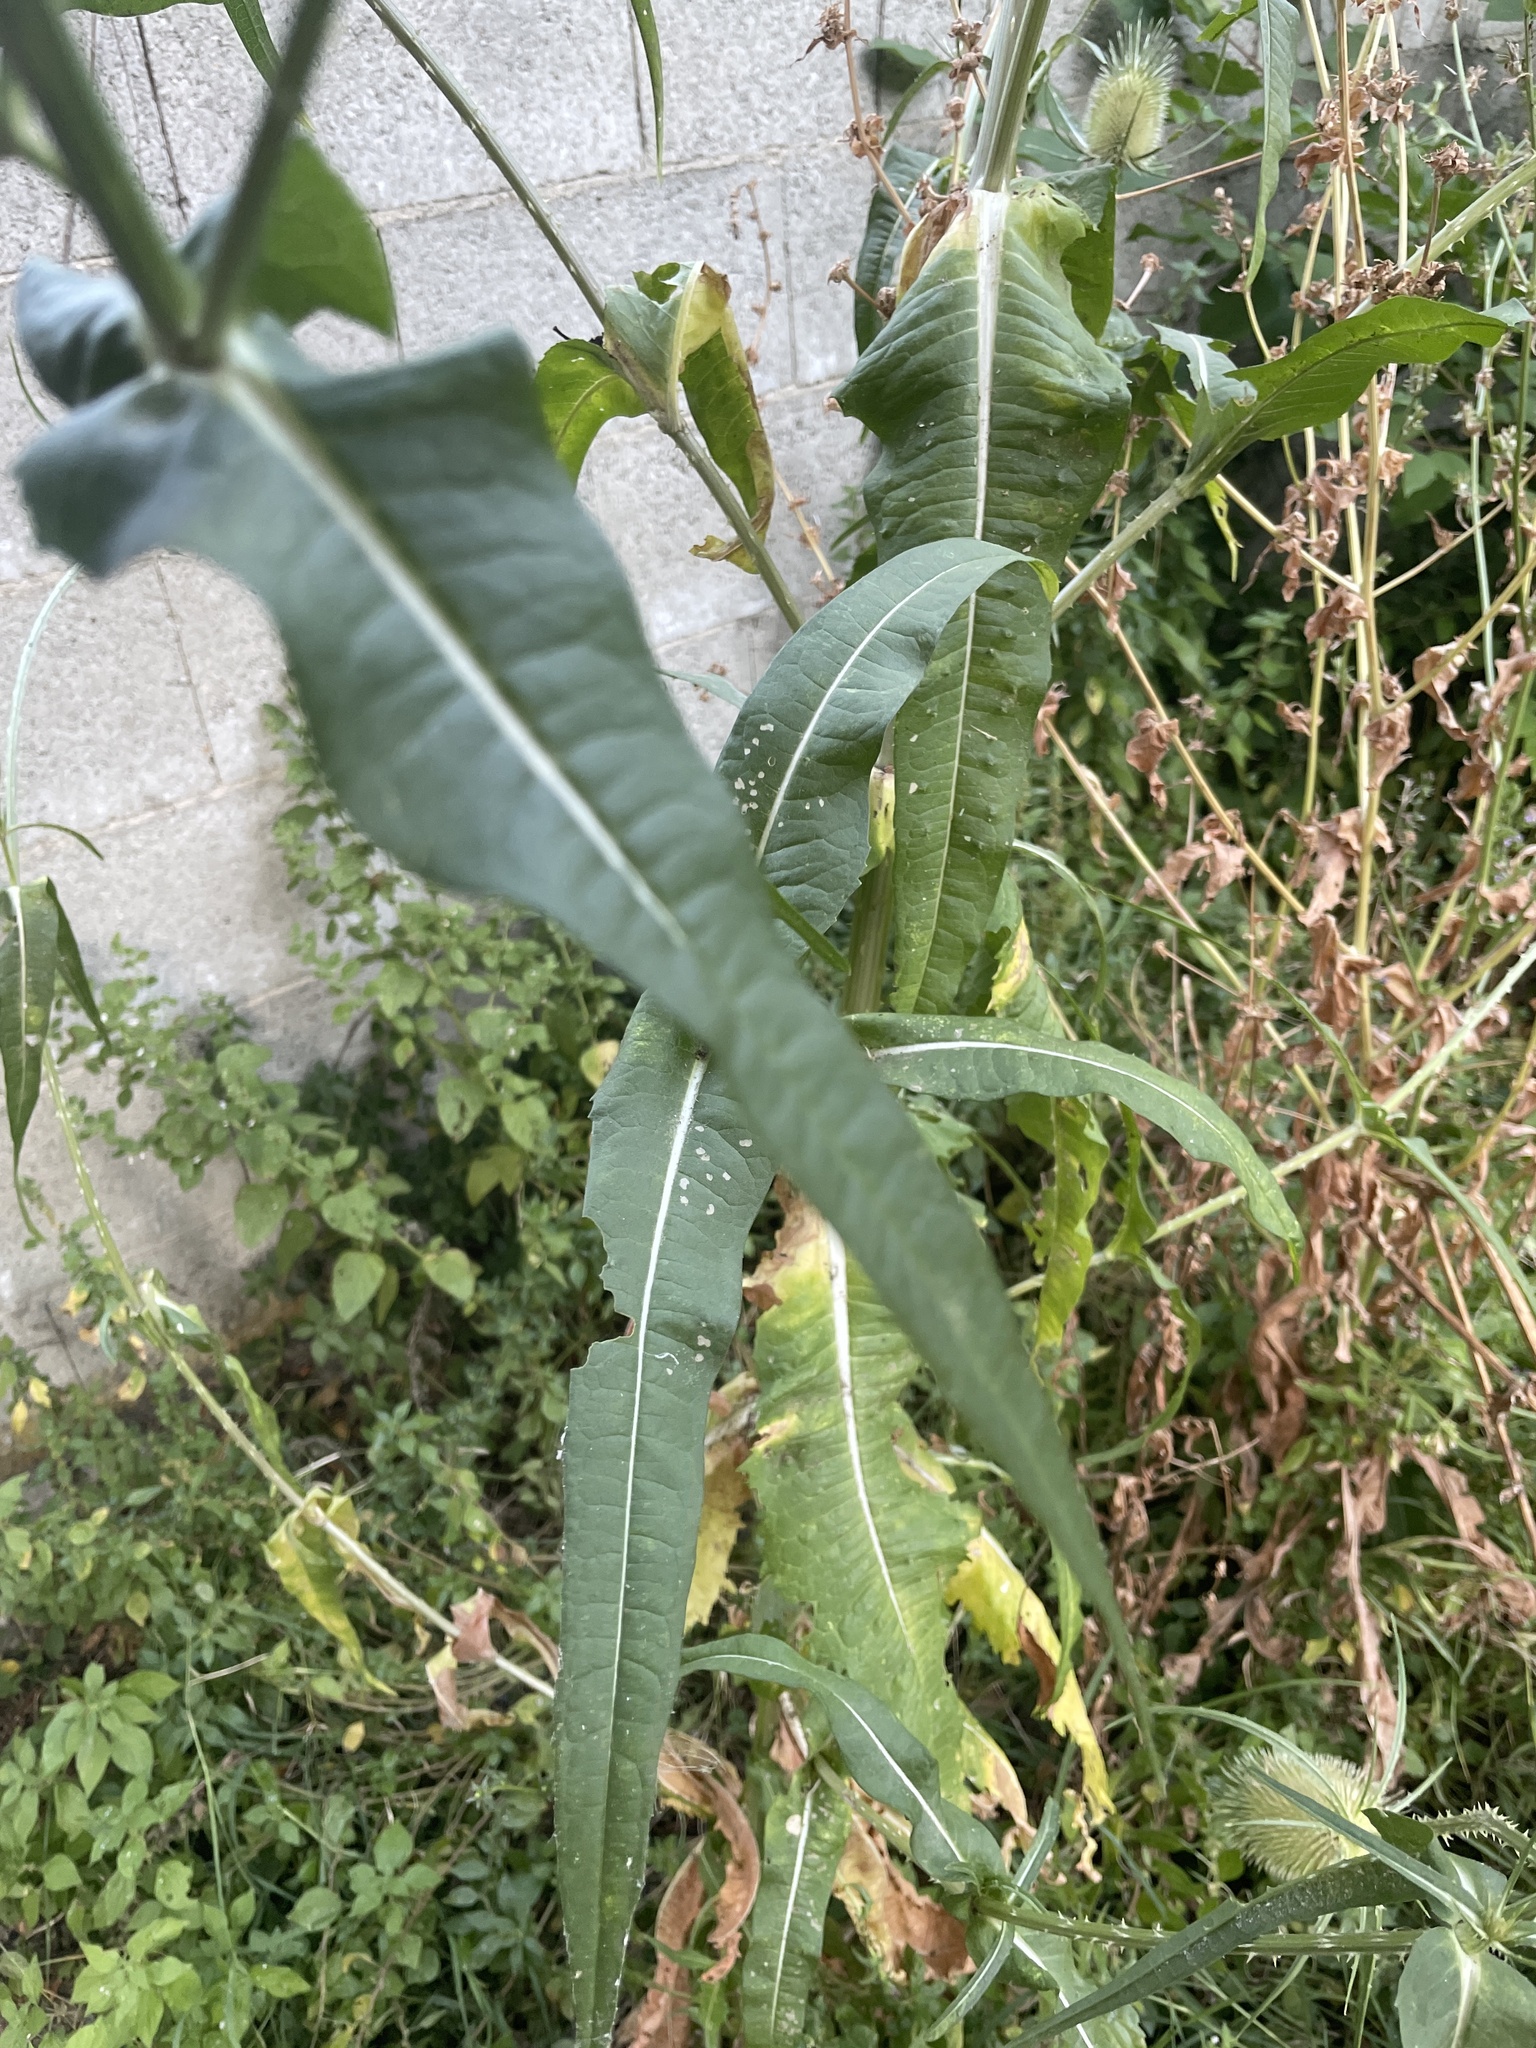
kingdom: Plantae
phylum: Tracheophyta
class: Magnoliopsida
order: Dipsacales
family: Caprifoliaceae
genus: Dipsacus
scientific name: Dipsacus fullonum
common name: Teasel
